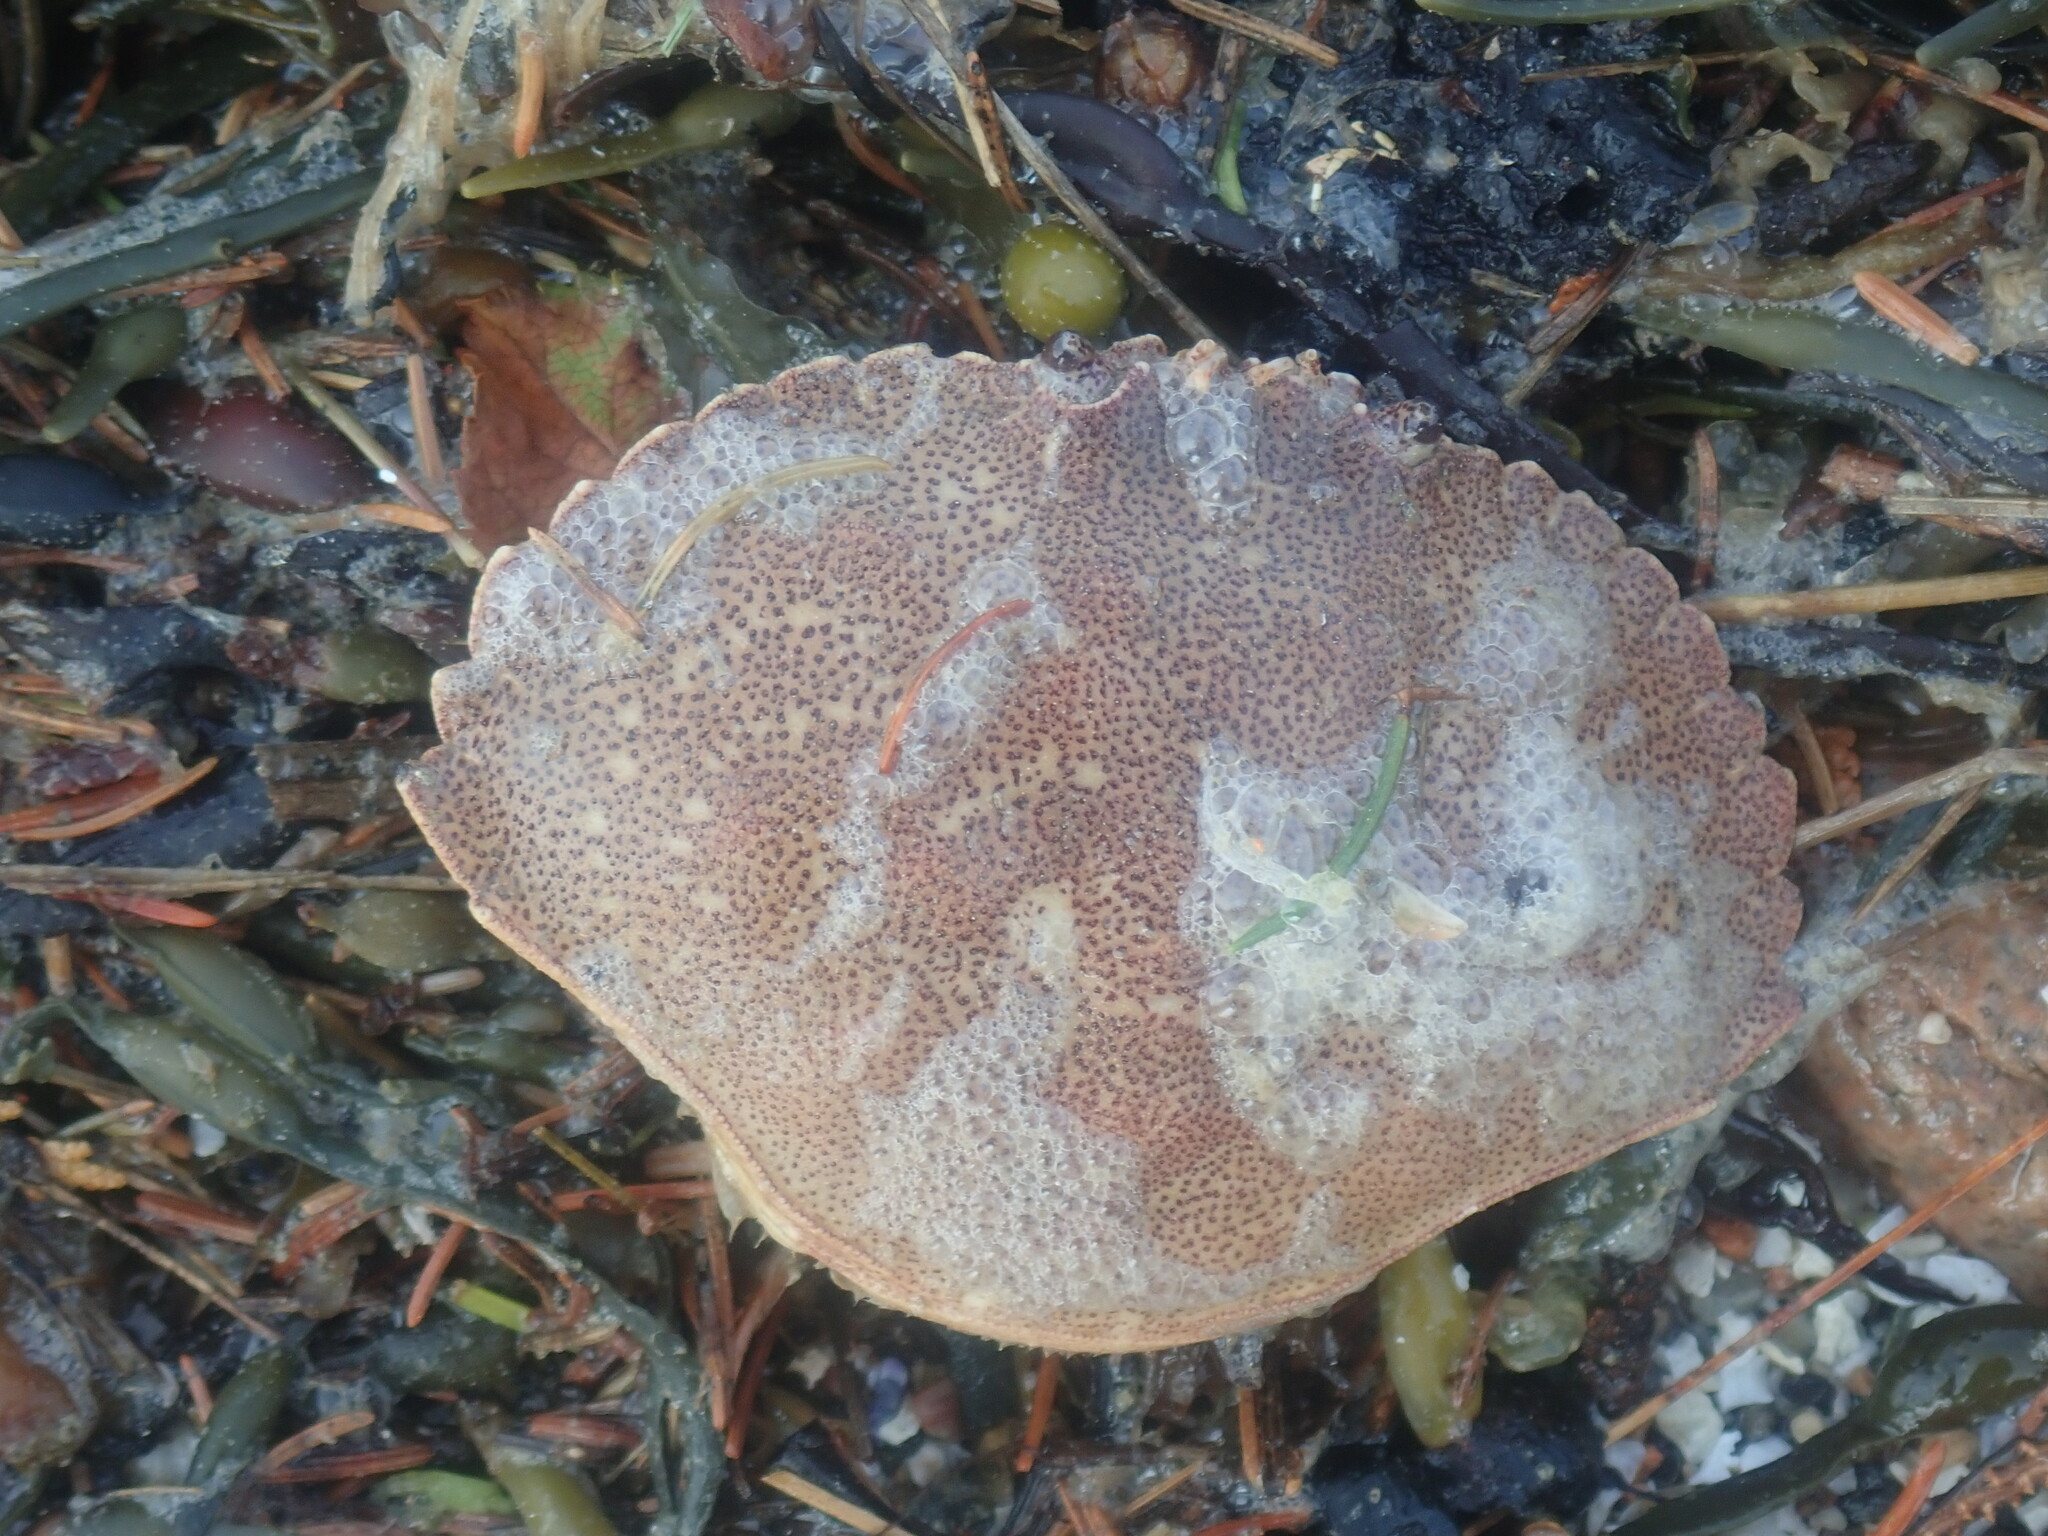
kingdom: Animalia
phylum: Arthropoda
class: Malacostraca
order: Decapoda
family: Cancridae
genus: Cancer
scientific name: Cancer irroratus
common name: Atlantic rock crab
